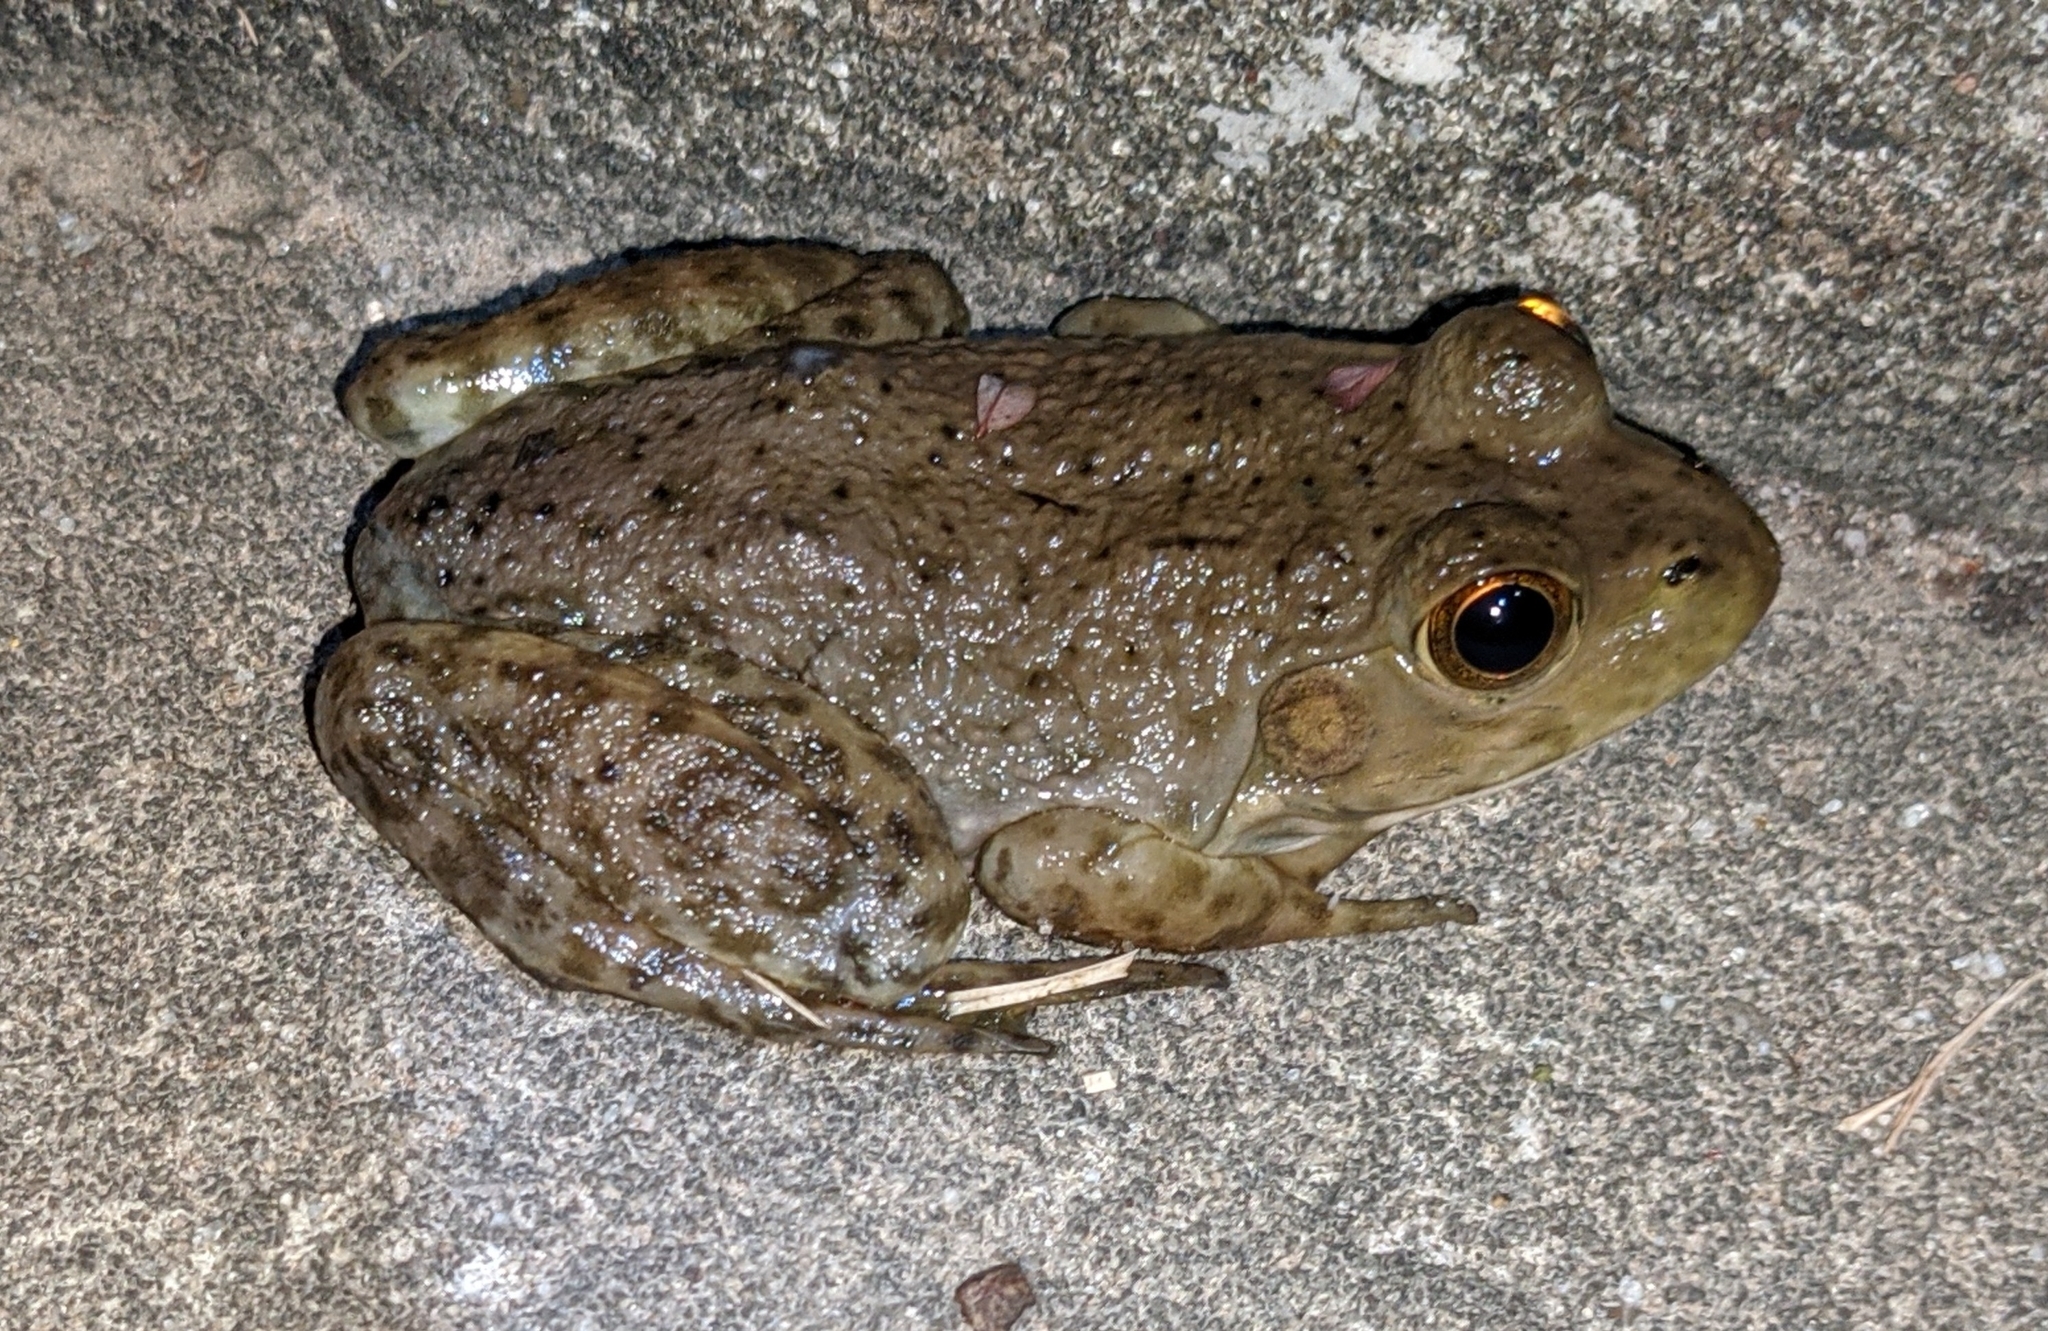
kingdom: Animalia
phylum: Chordata
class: Amphibia
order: Anura
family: Ranidae
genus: Lithobates
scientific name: Lithobates catesbeianus
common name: American bullfrog
